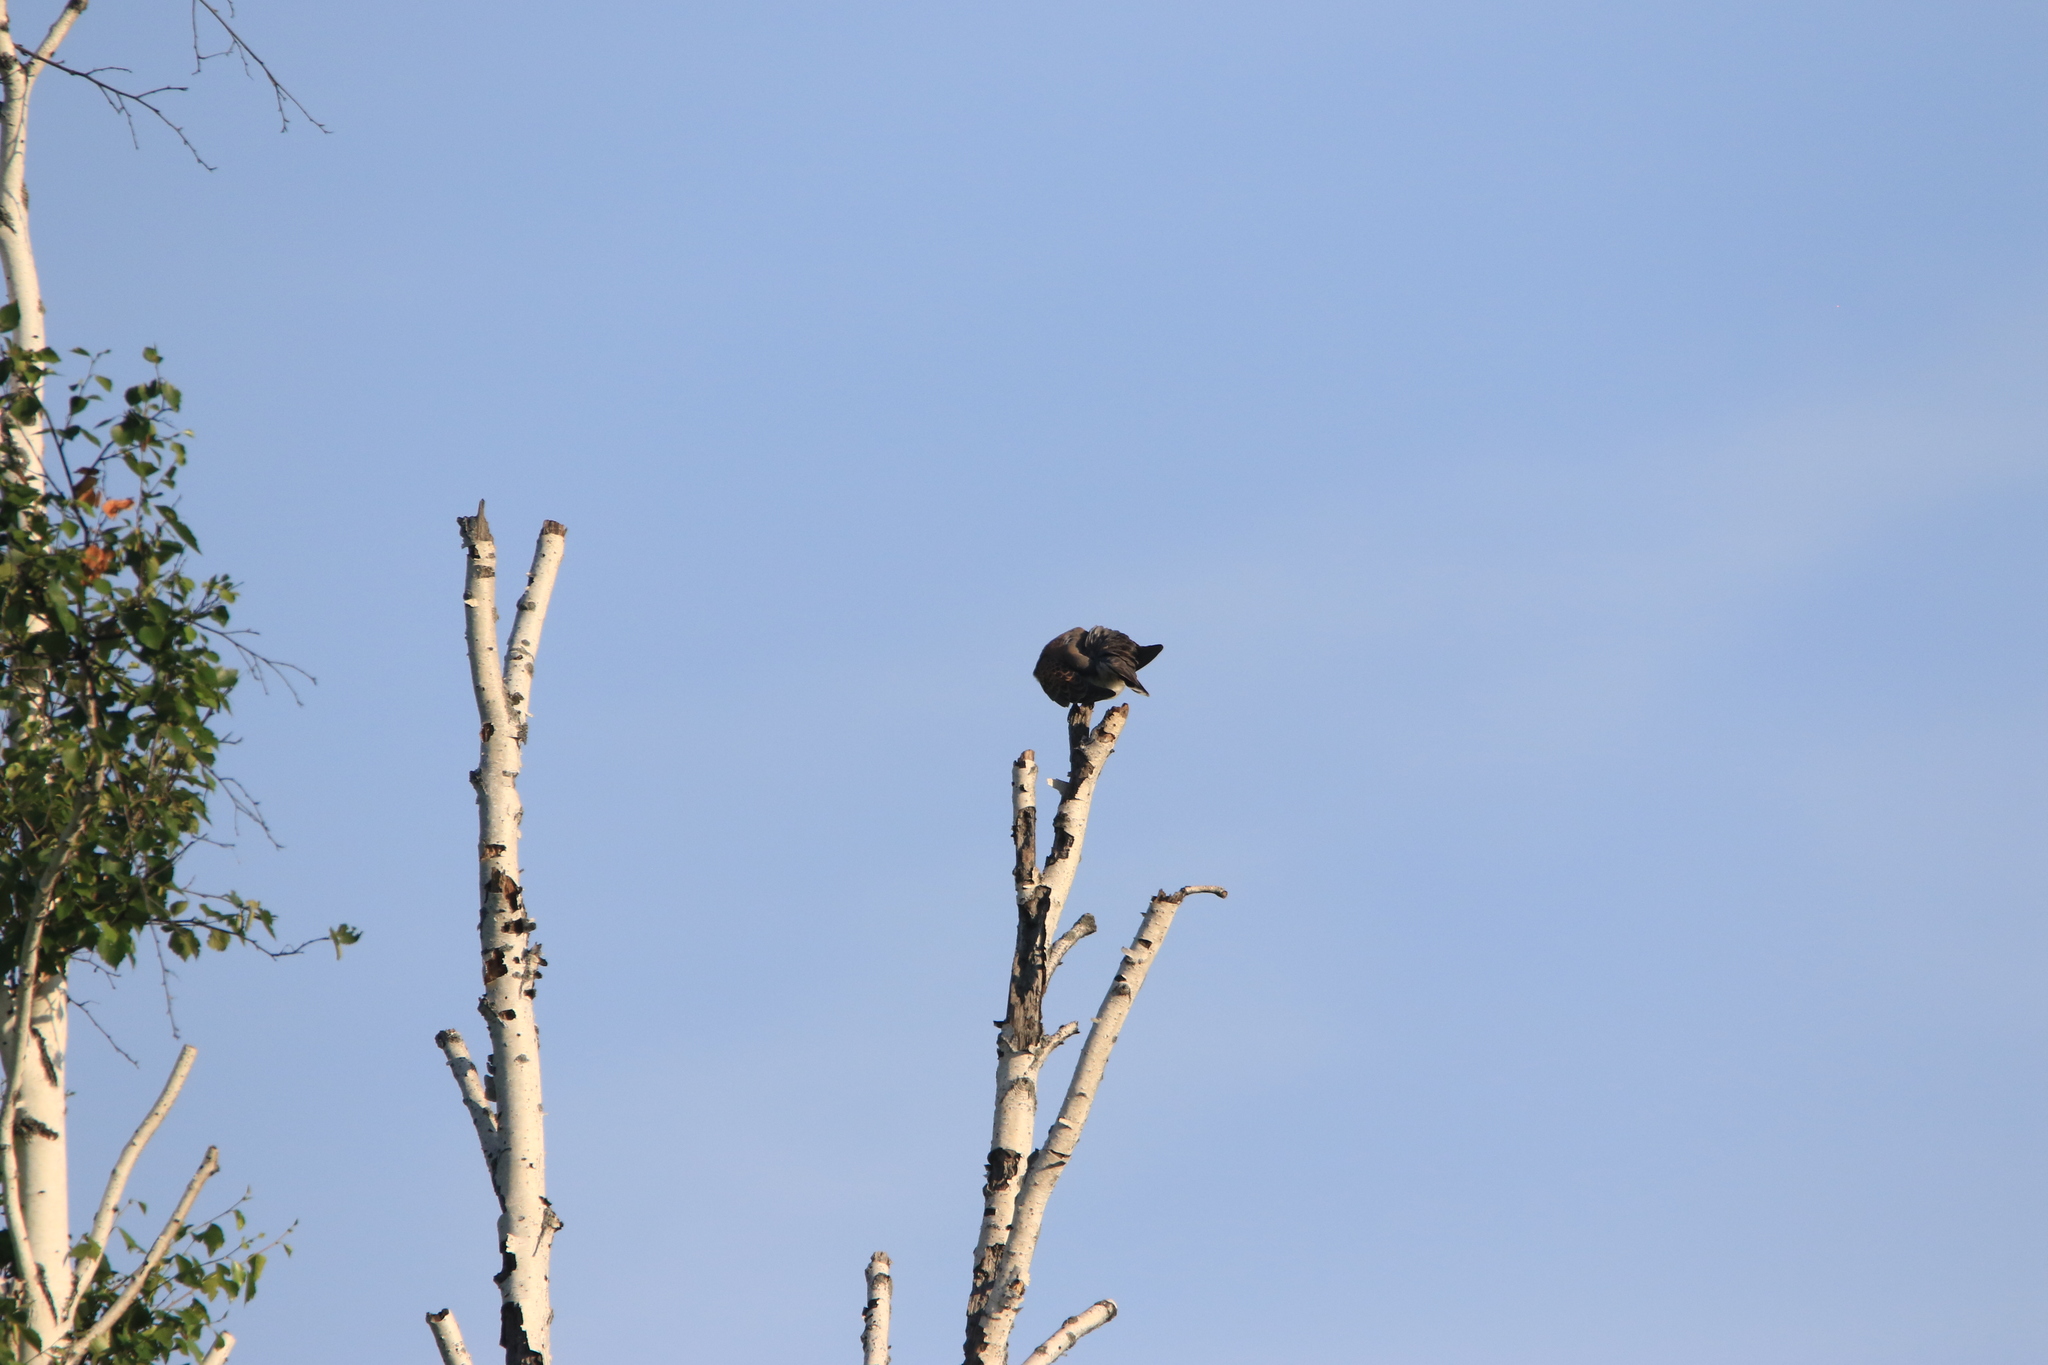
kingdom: Animalia
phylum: Chordata
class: Aves
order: Columbiformes
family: Columbidae
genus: Streptopelia
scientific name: Streptopelia orientalis
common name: Oriental turtle dove
